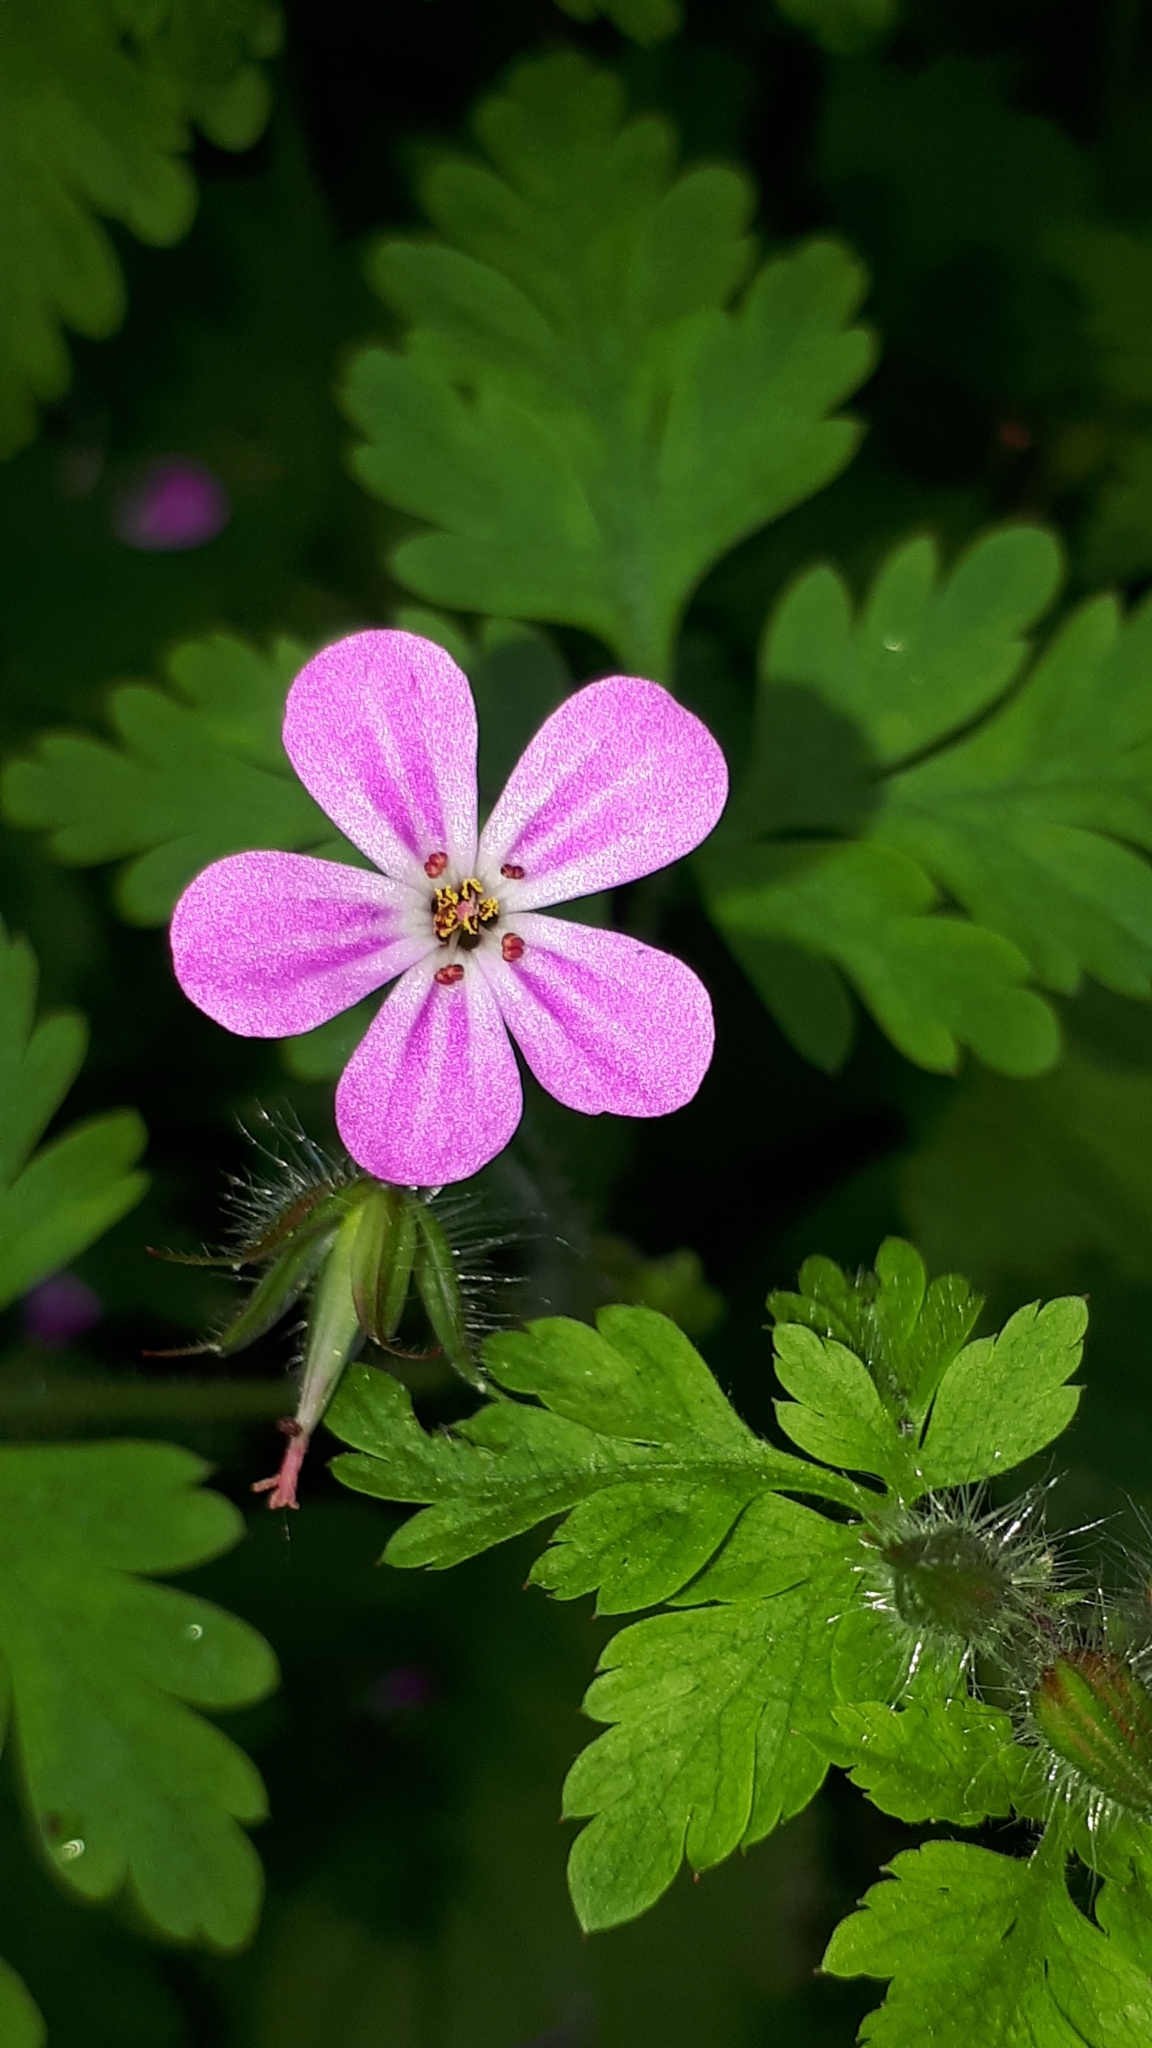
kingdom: Plantae
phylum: Tracheophyta
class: Magnoliopsida
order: Geraniales
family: Geraniaceae
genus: Geranium
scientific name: Geranium robertianum
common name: Herb-robert
